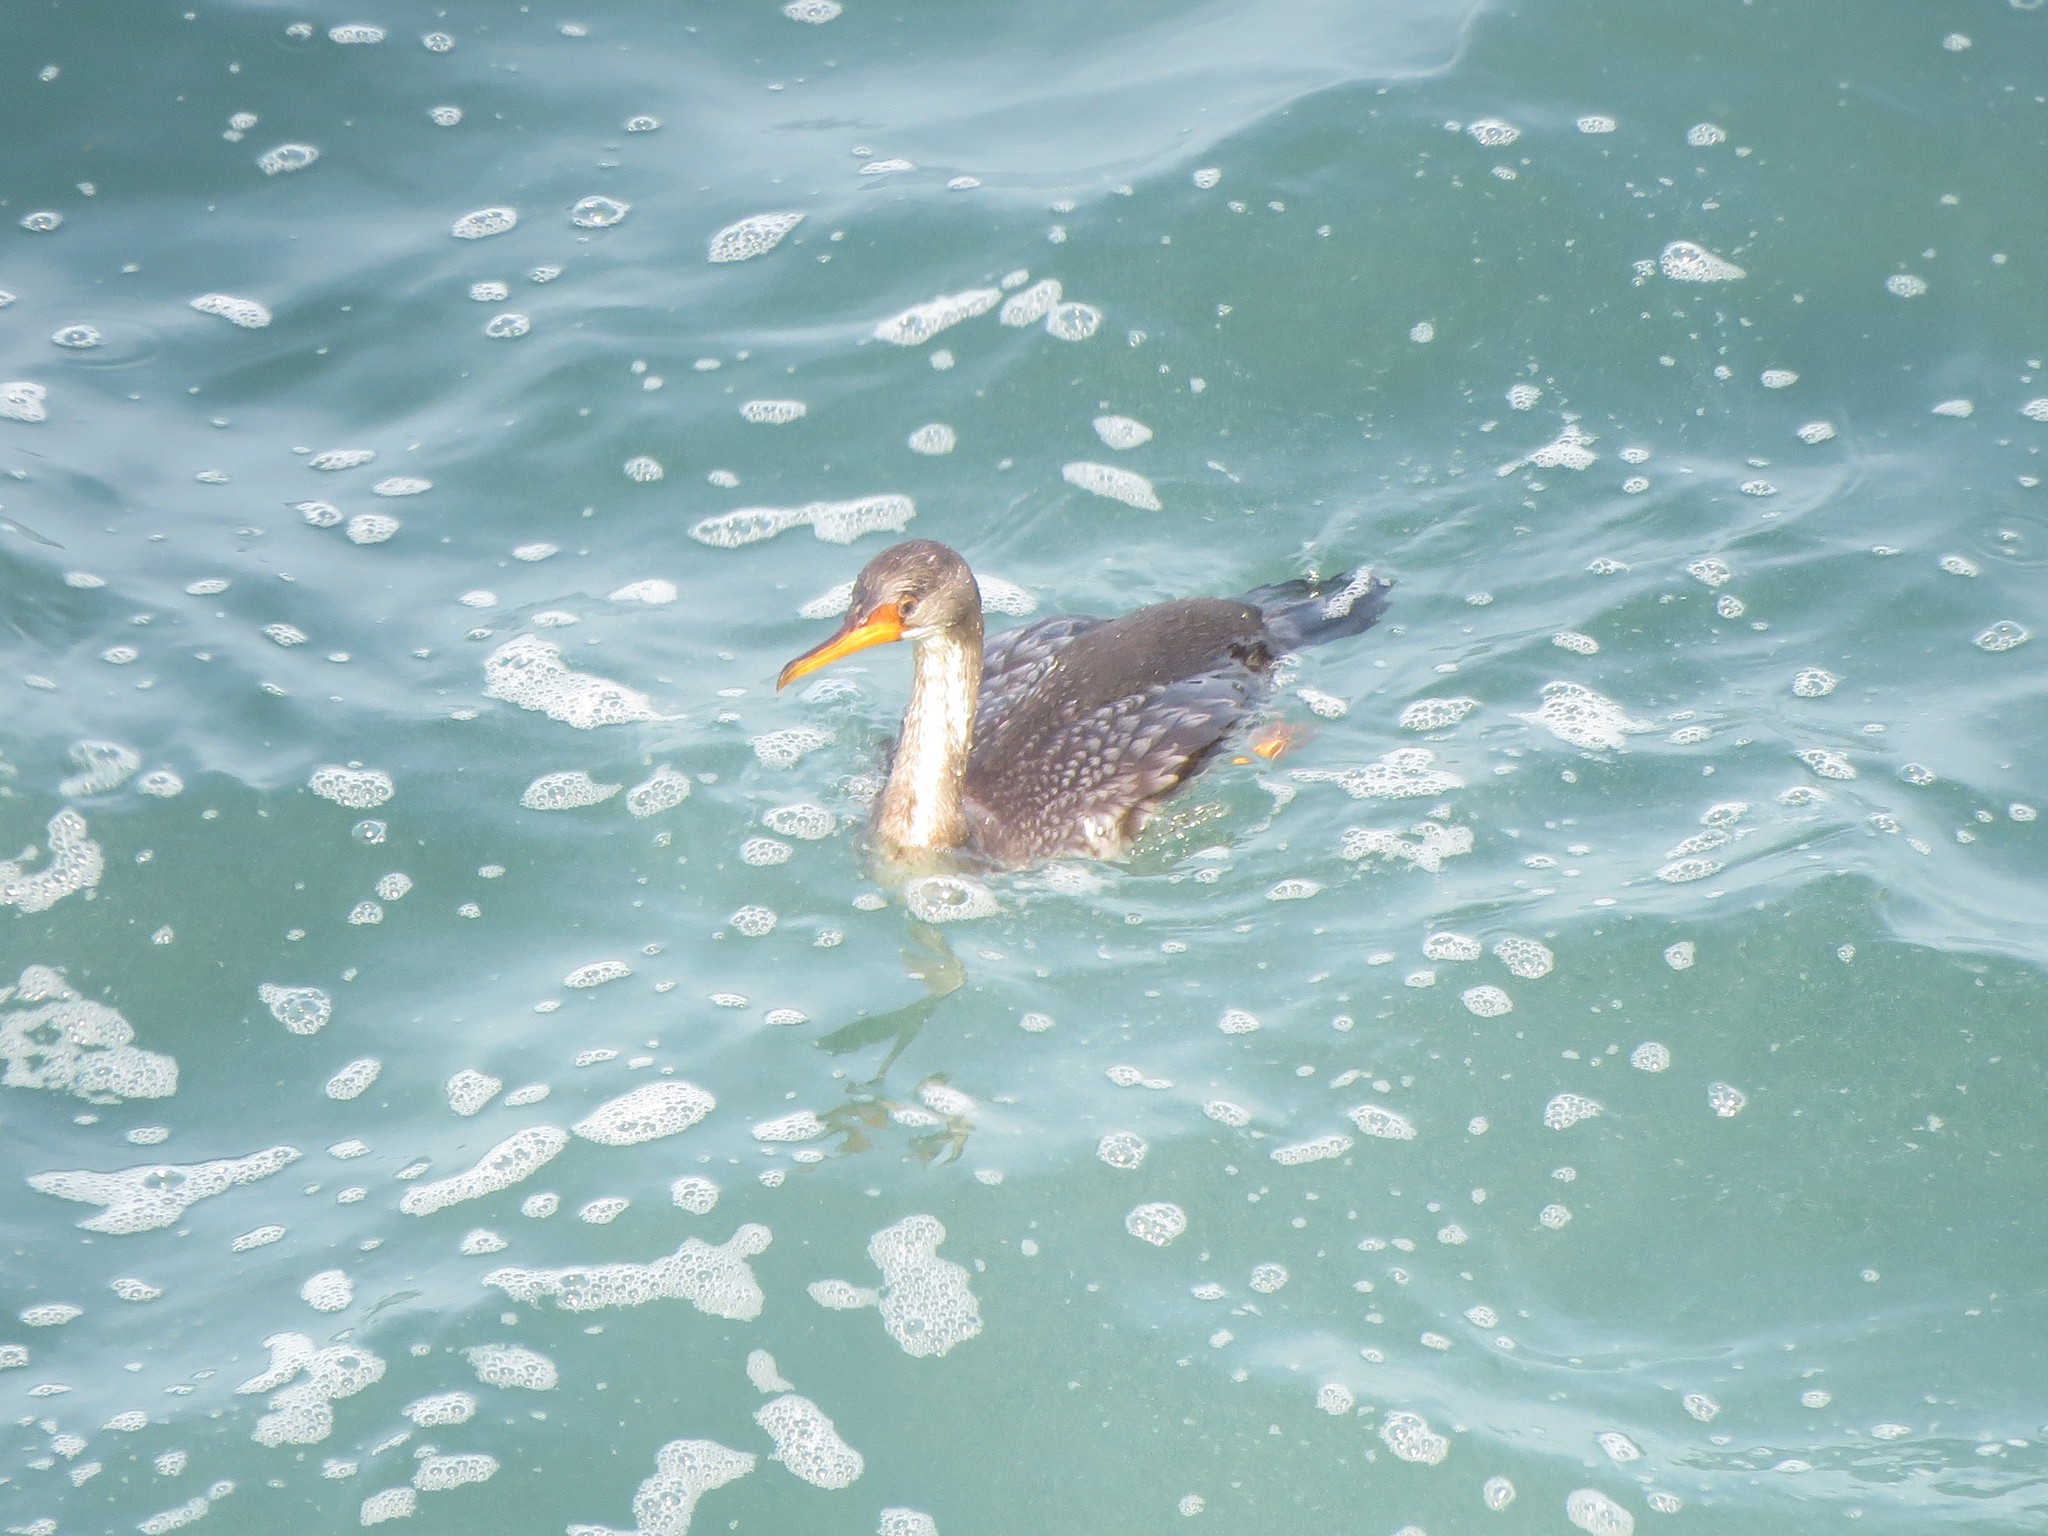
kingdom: Animalia
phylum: Chordata
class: Aves
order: Suliformes
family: Phalacrocoracidae
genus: Phalacrocorax
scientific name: Phalacrocorax gaimardi
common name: Red-legged cormorant
